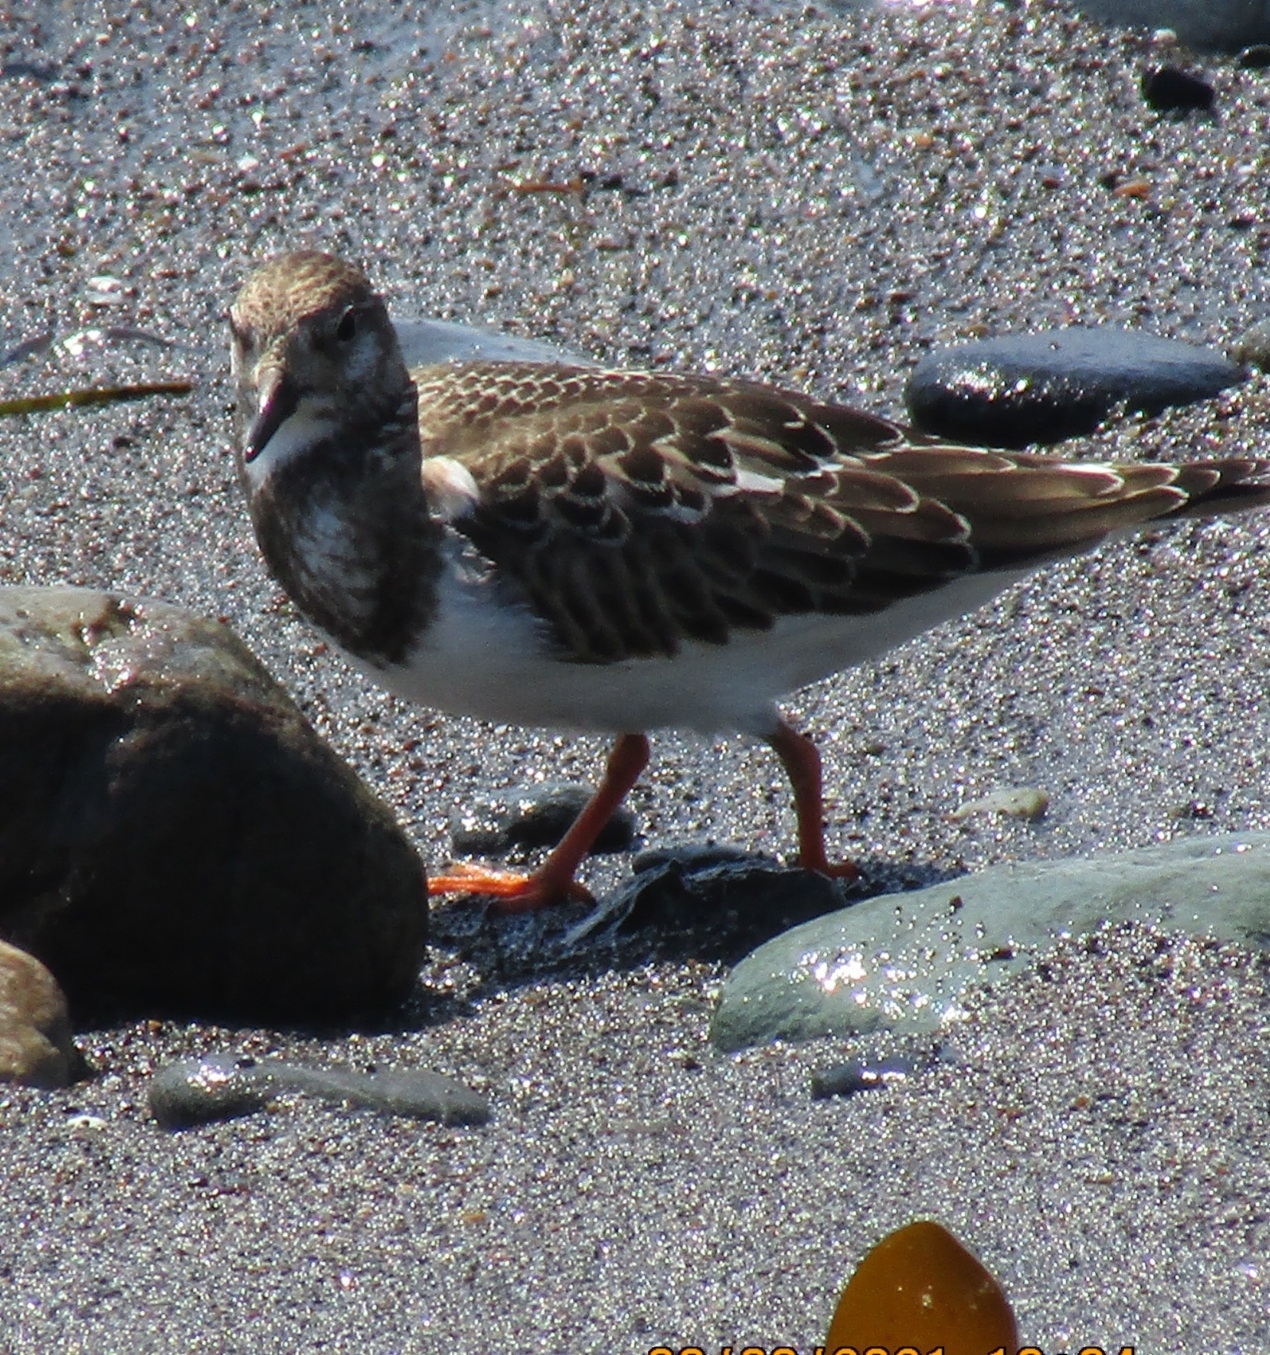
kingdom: Animalia
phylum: Chordata
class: Aves
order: Charadriiformes
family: Scolopacidae
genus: Arenaria
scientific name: Arenaria interpres
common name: Ruddy turnstone
